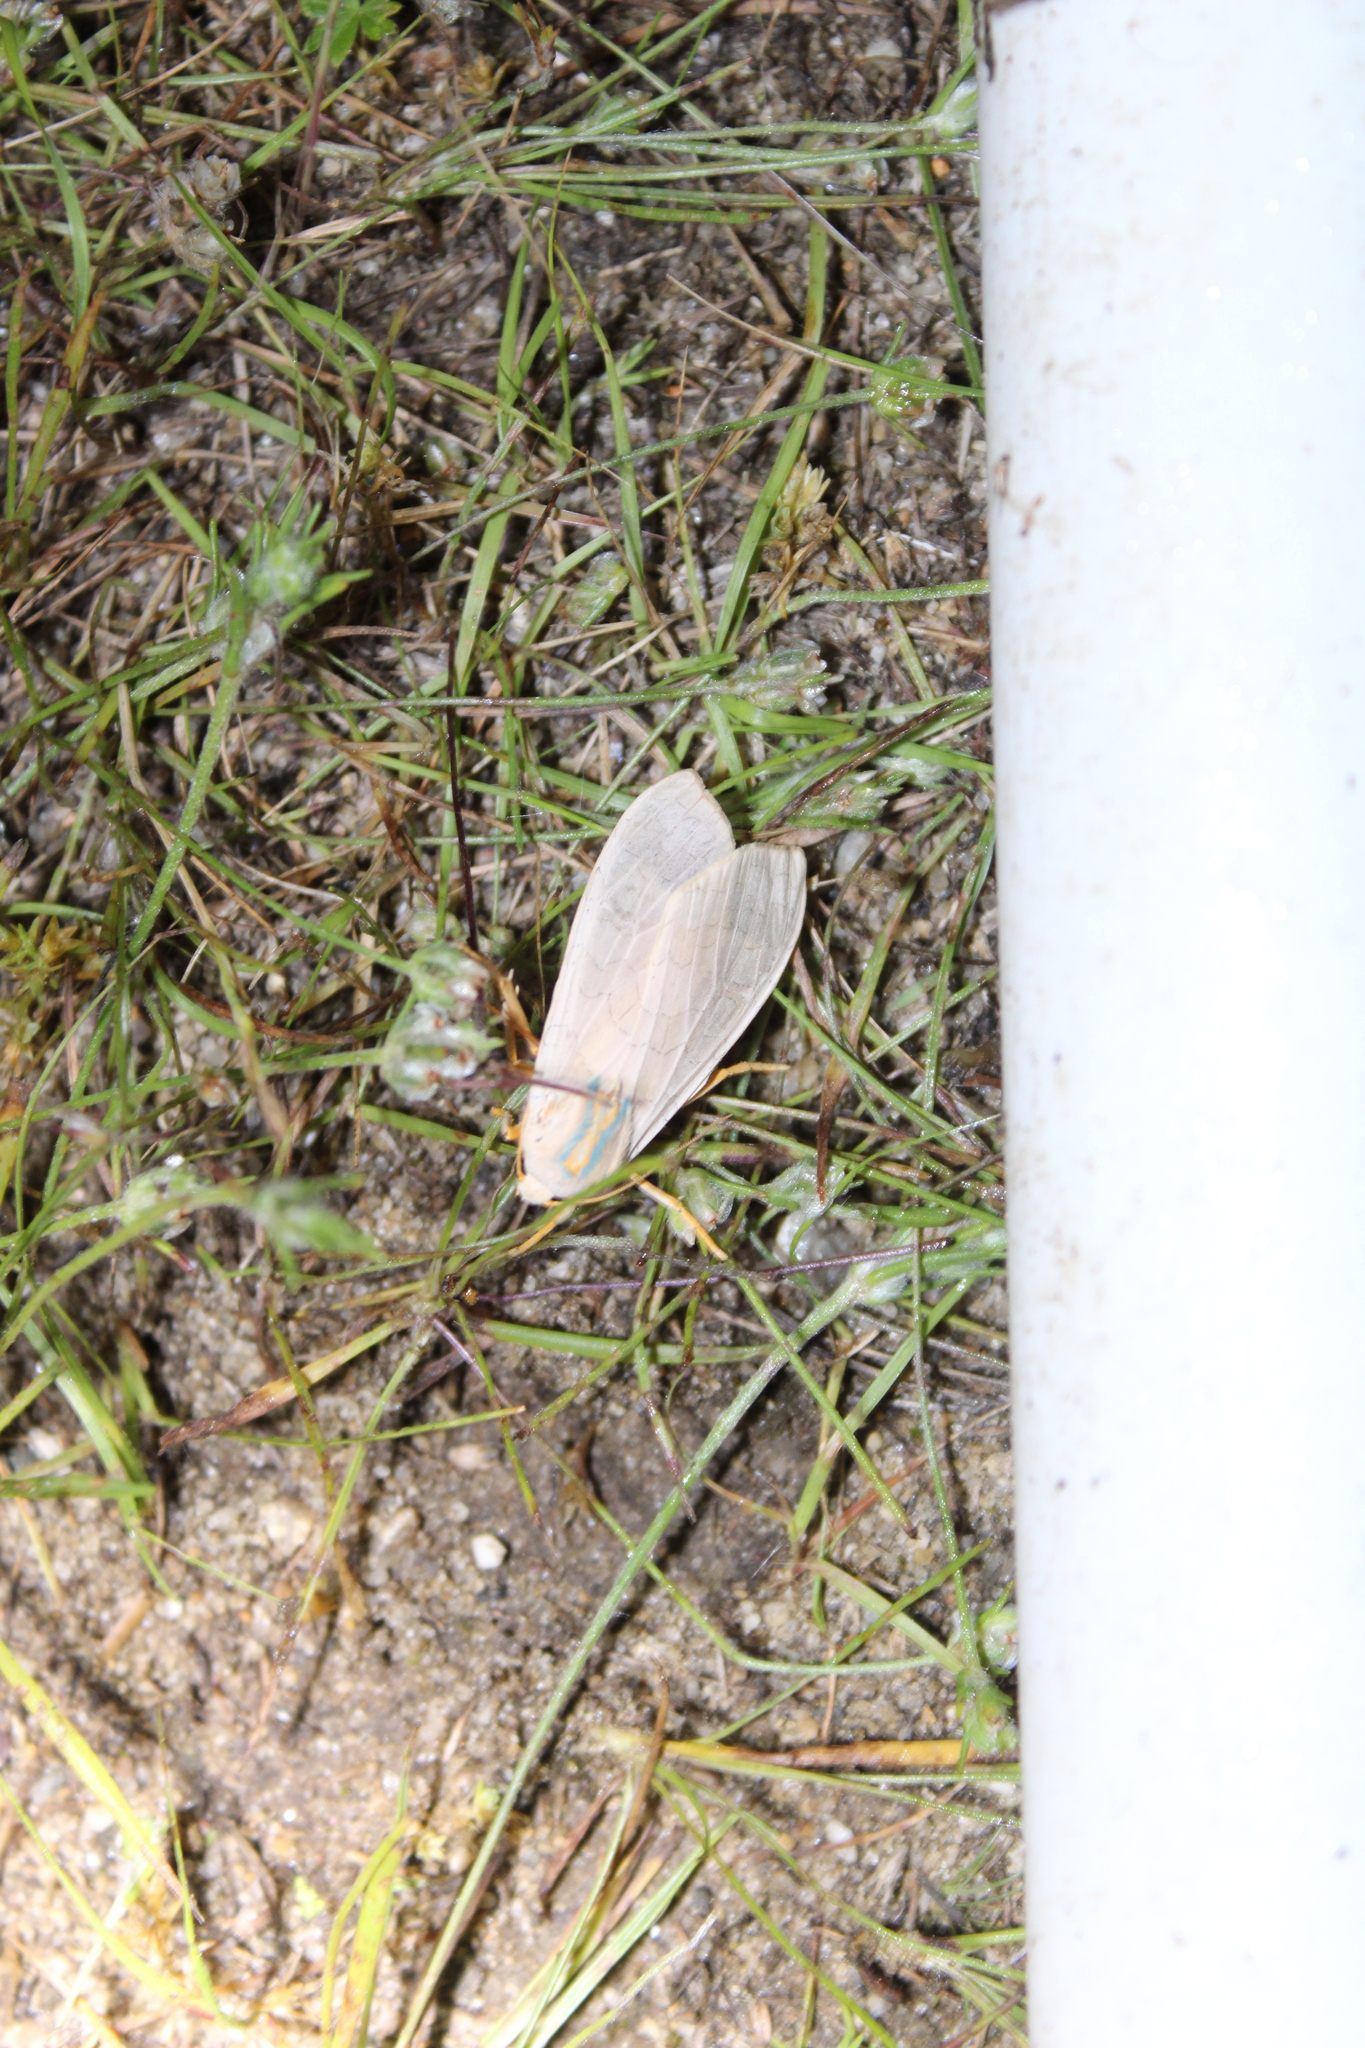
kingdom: Animalia
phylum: Arthropoda
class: Insecta
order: Lepidoptera
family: Erebidae
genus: Halysidota
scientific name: Halysidota
